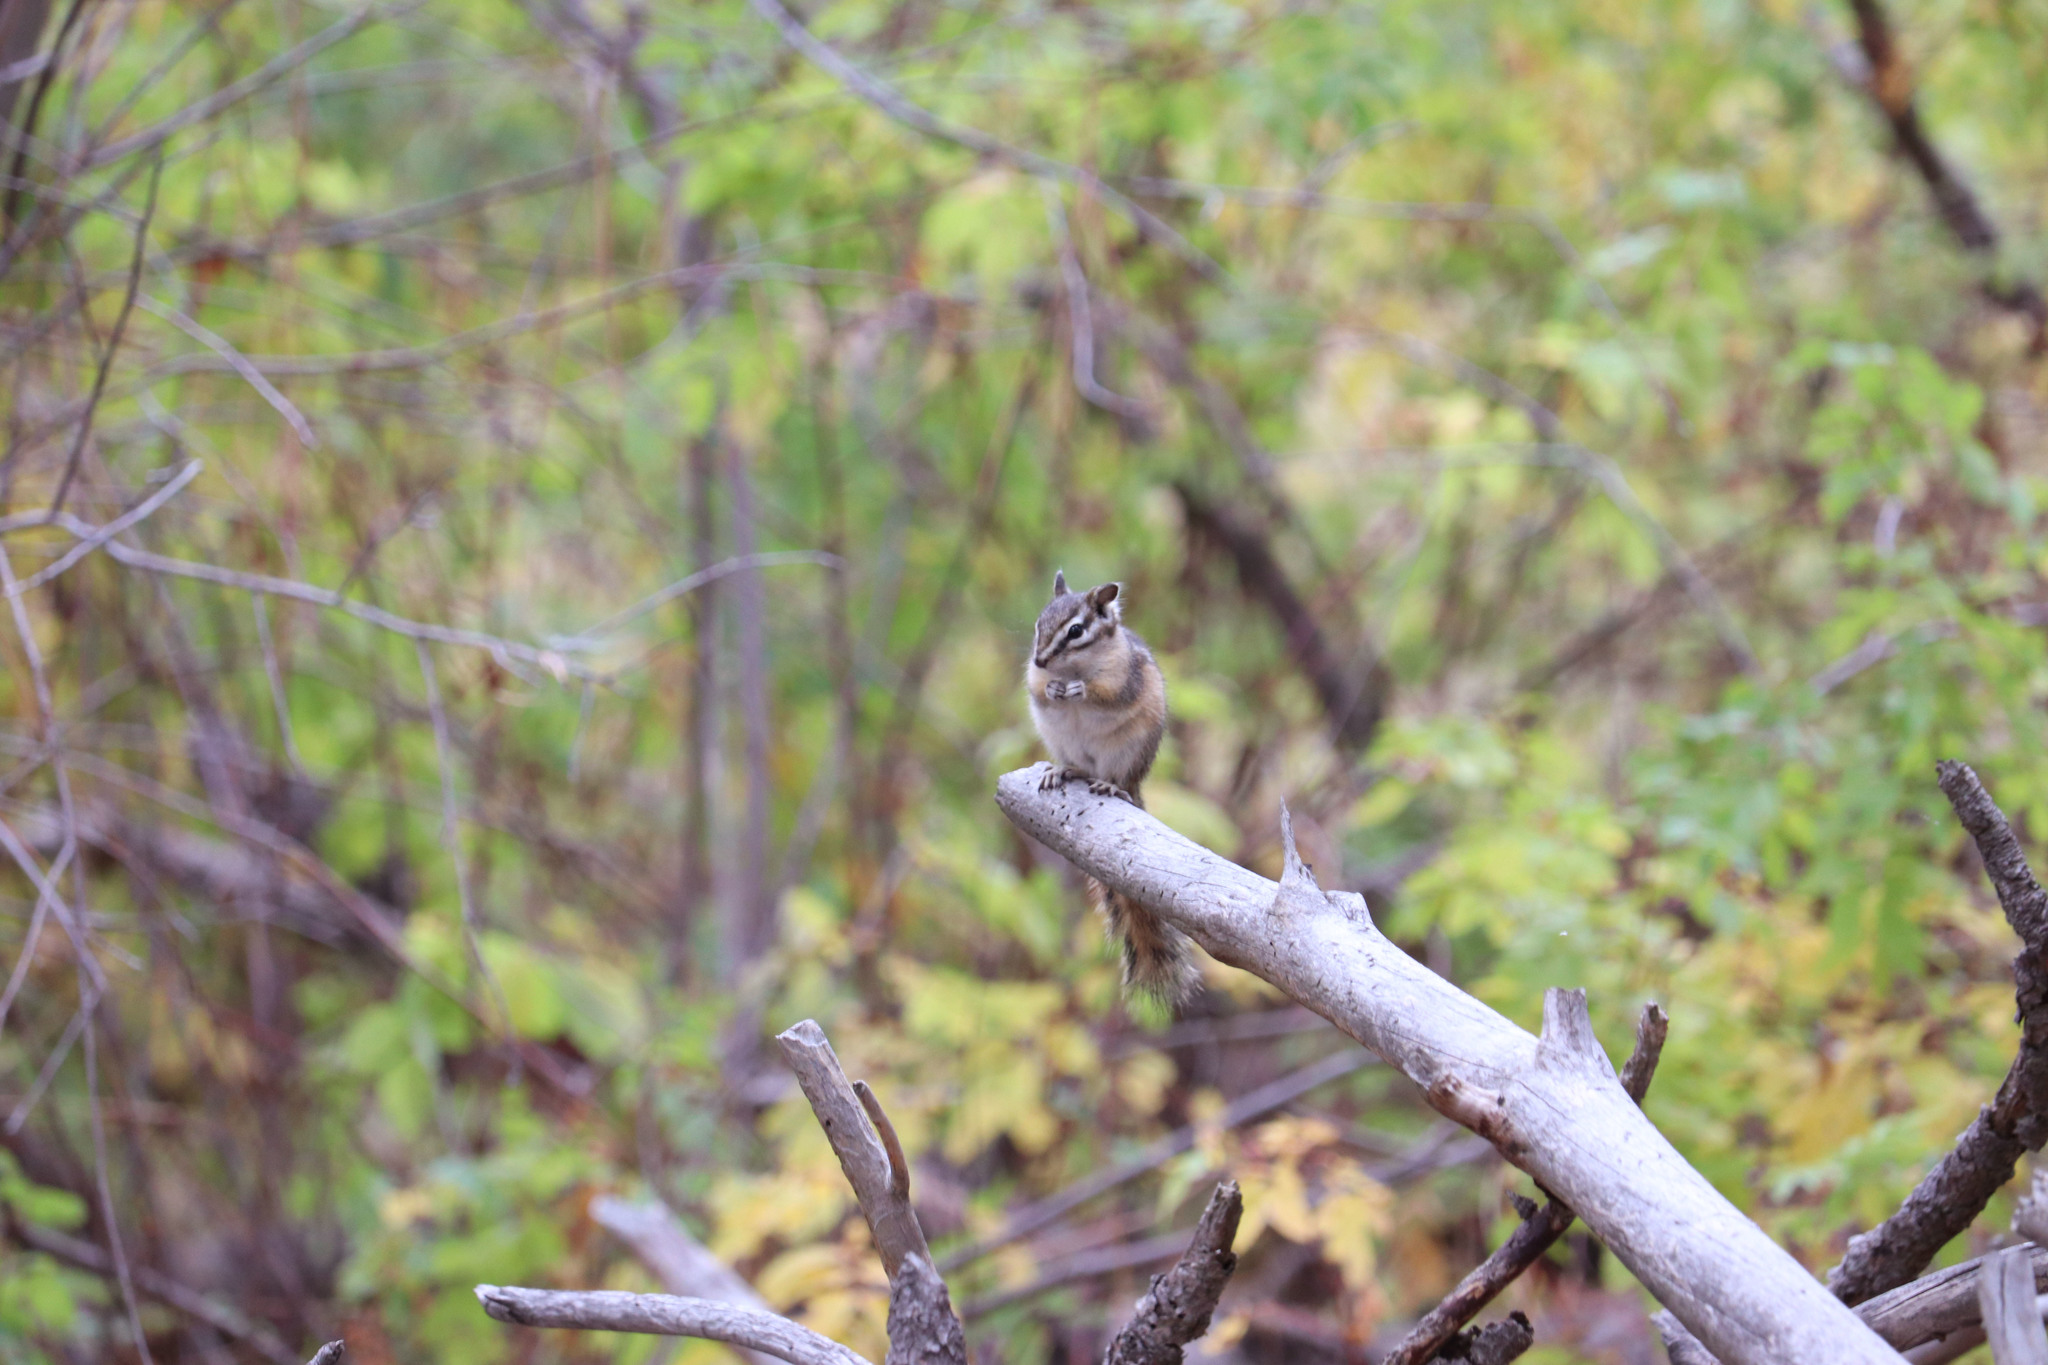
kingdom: Animalia
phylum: Chordata
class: Mammalia
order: Rodentia
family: Sciuridae
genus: Tamias
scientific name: Tamias amoenus
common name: Yellow-pine chipmunk
